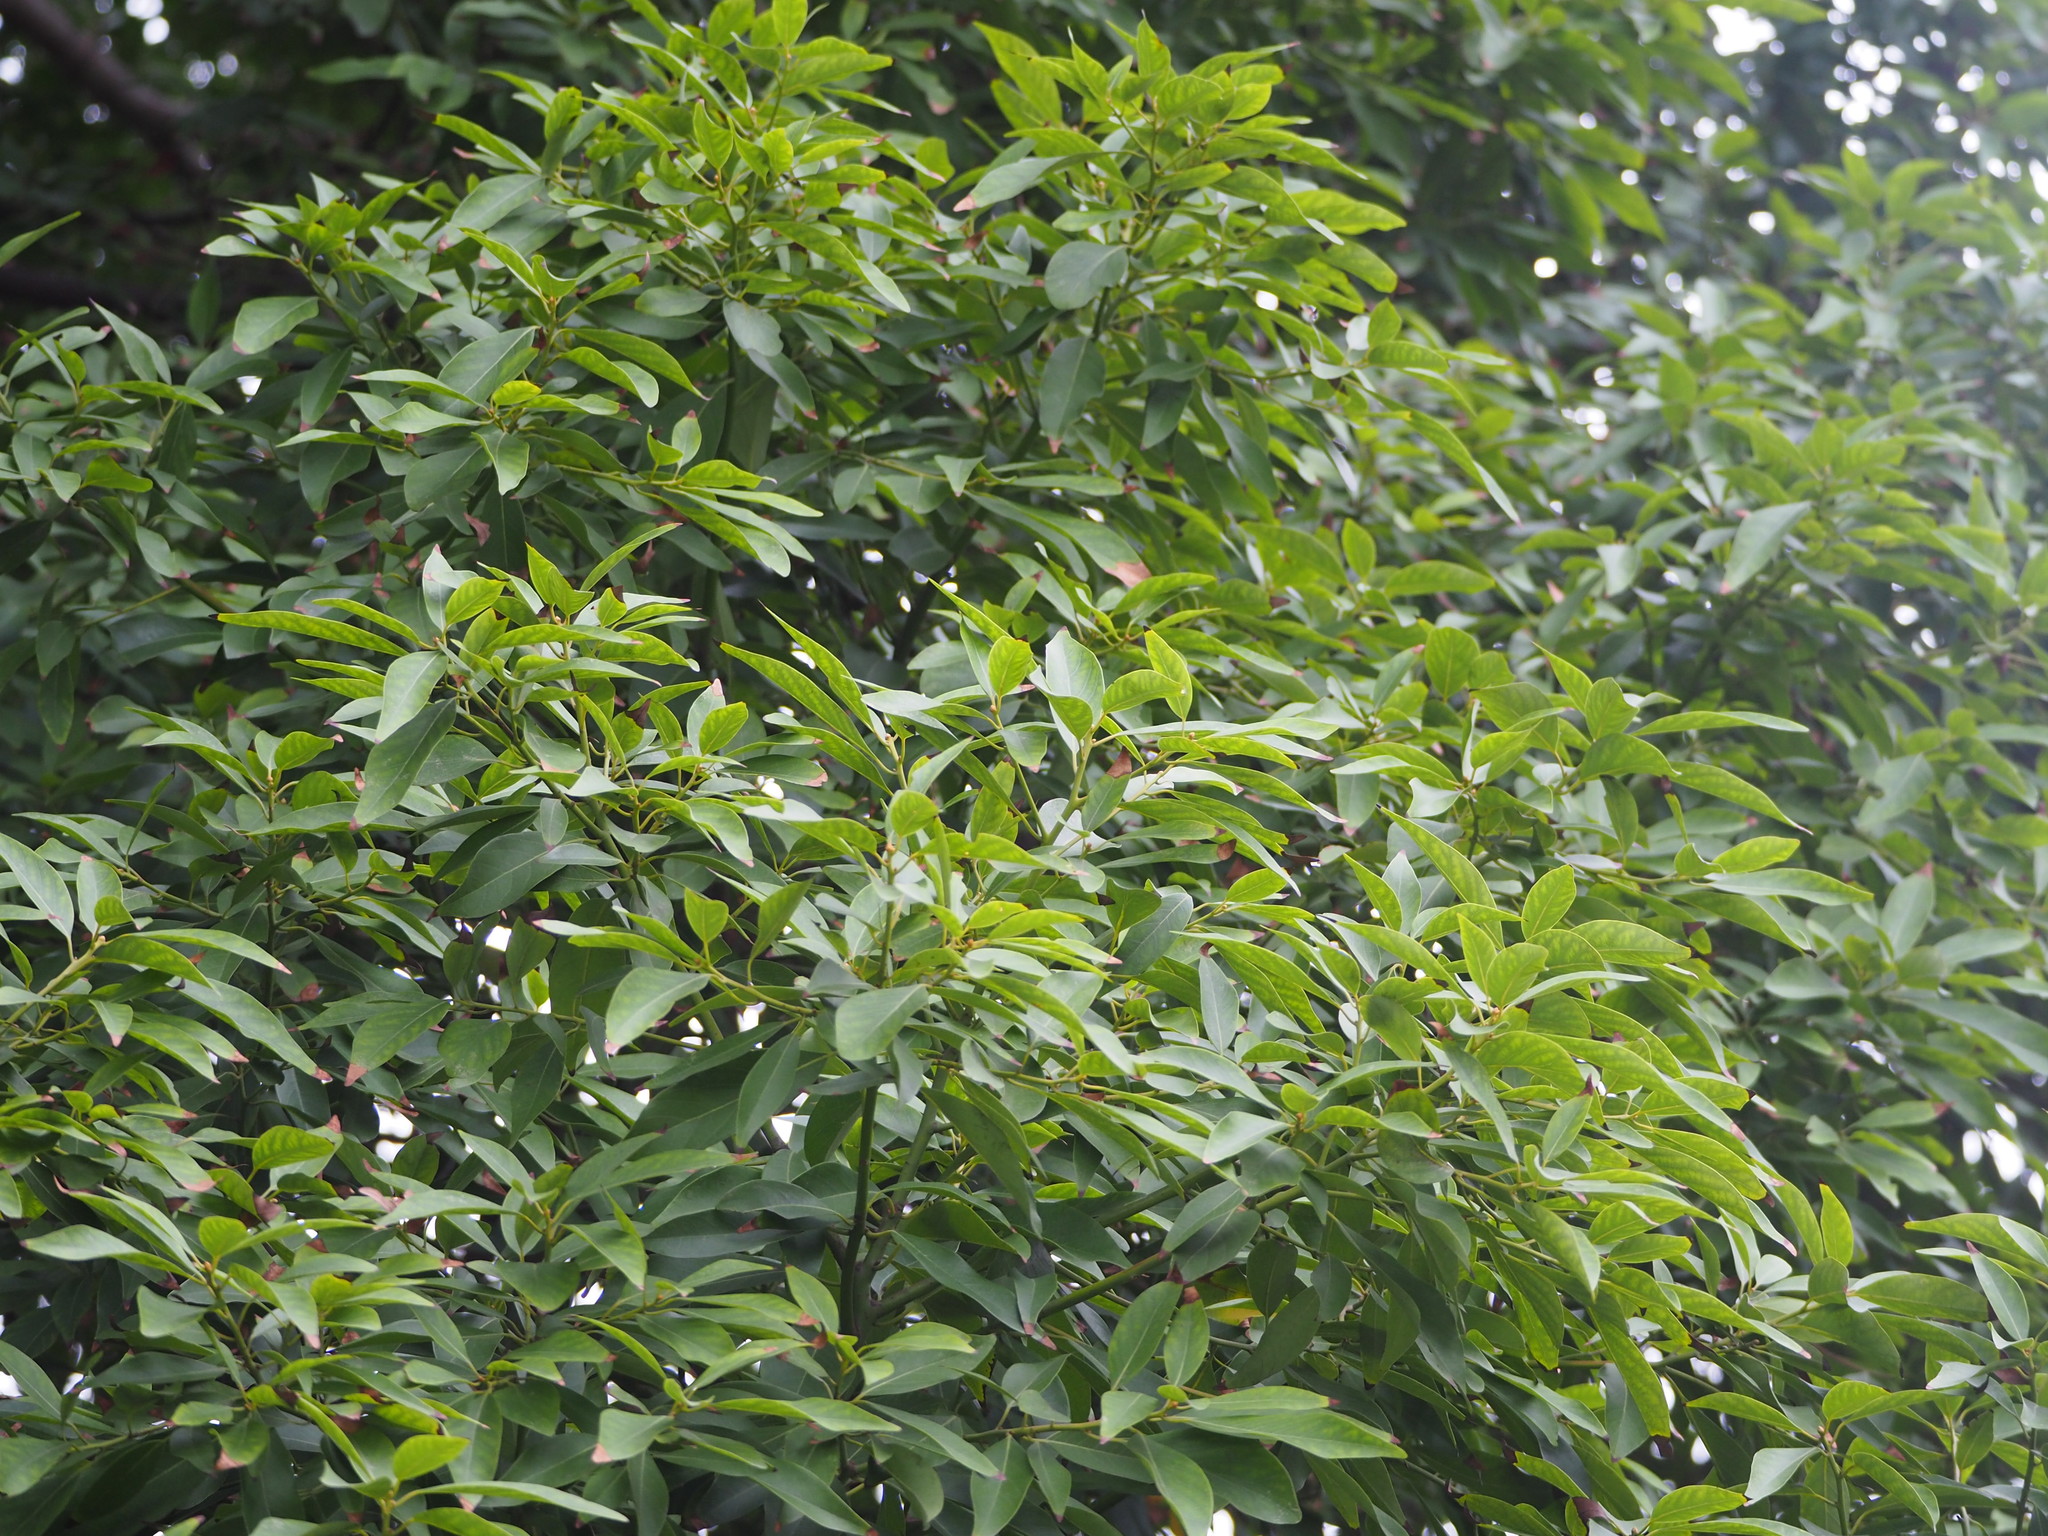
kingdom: Plantae
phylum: Tracheophyta
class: Magnoliopsida
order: Laurales
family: Lauraceae
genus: Machilus
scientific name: Machilus zuihoensis
